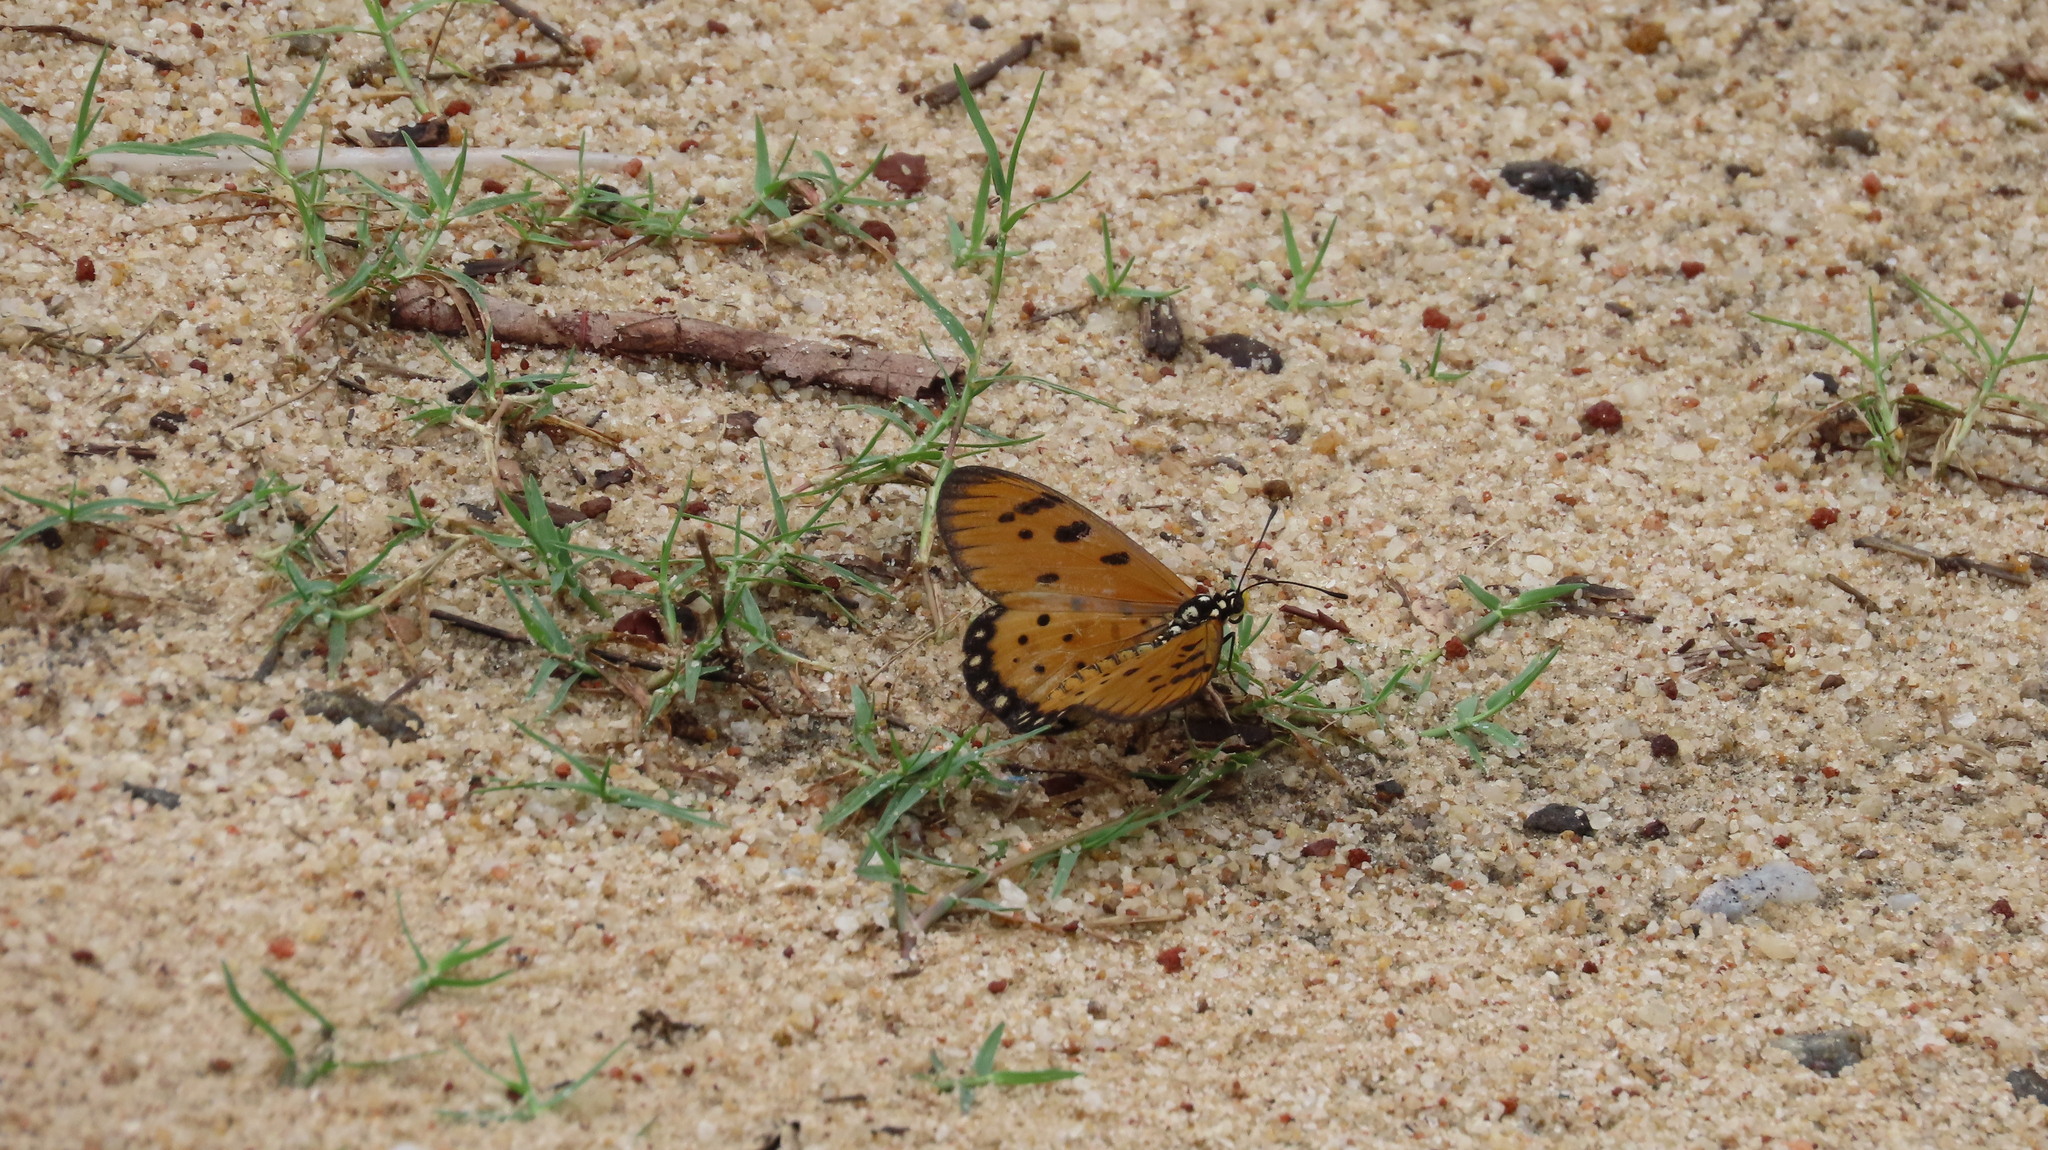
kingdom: Animalia
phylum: Arthropoda
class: Insecta
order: Lepidoptera
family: Nymphalidae
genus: Acraea
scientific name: Acraea terpsicore
